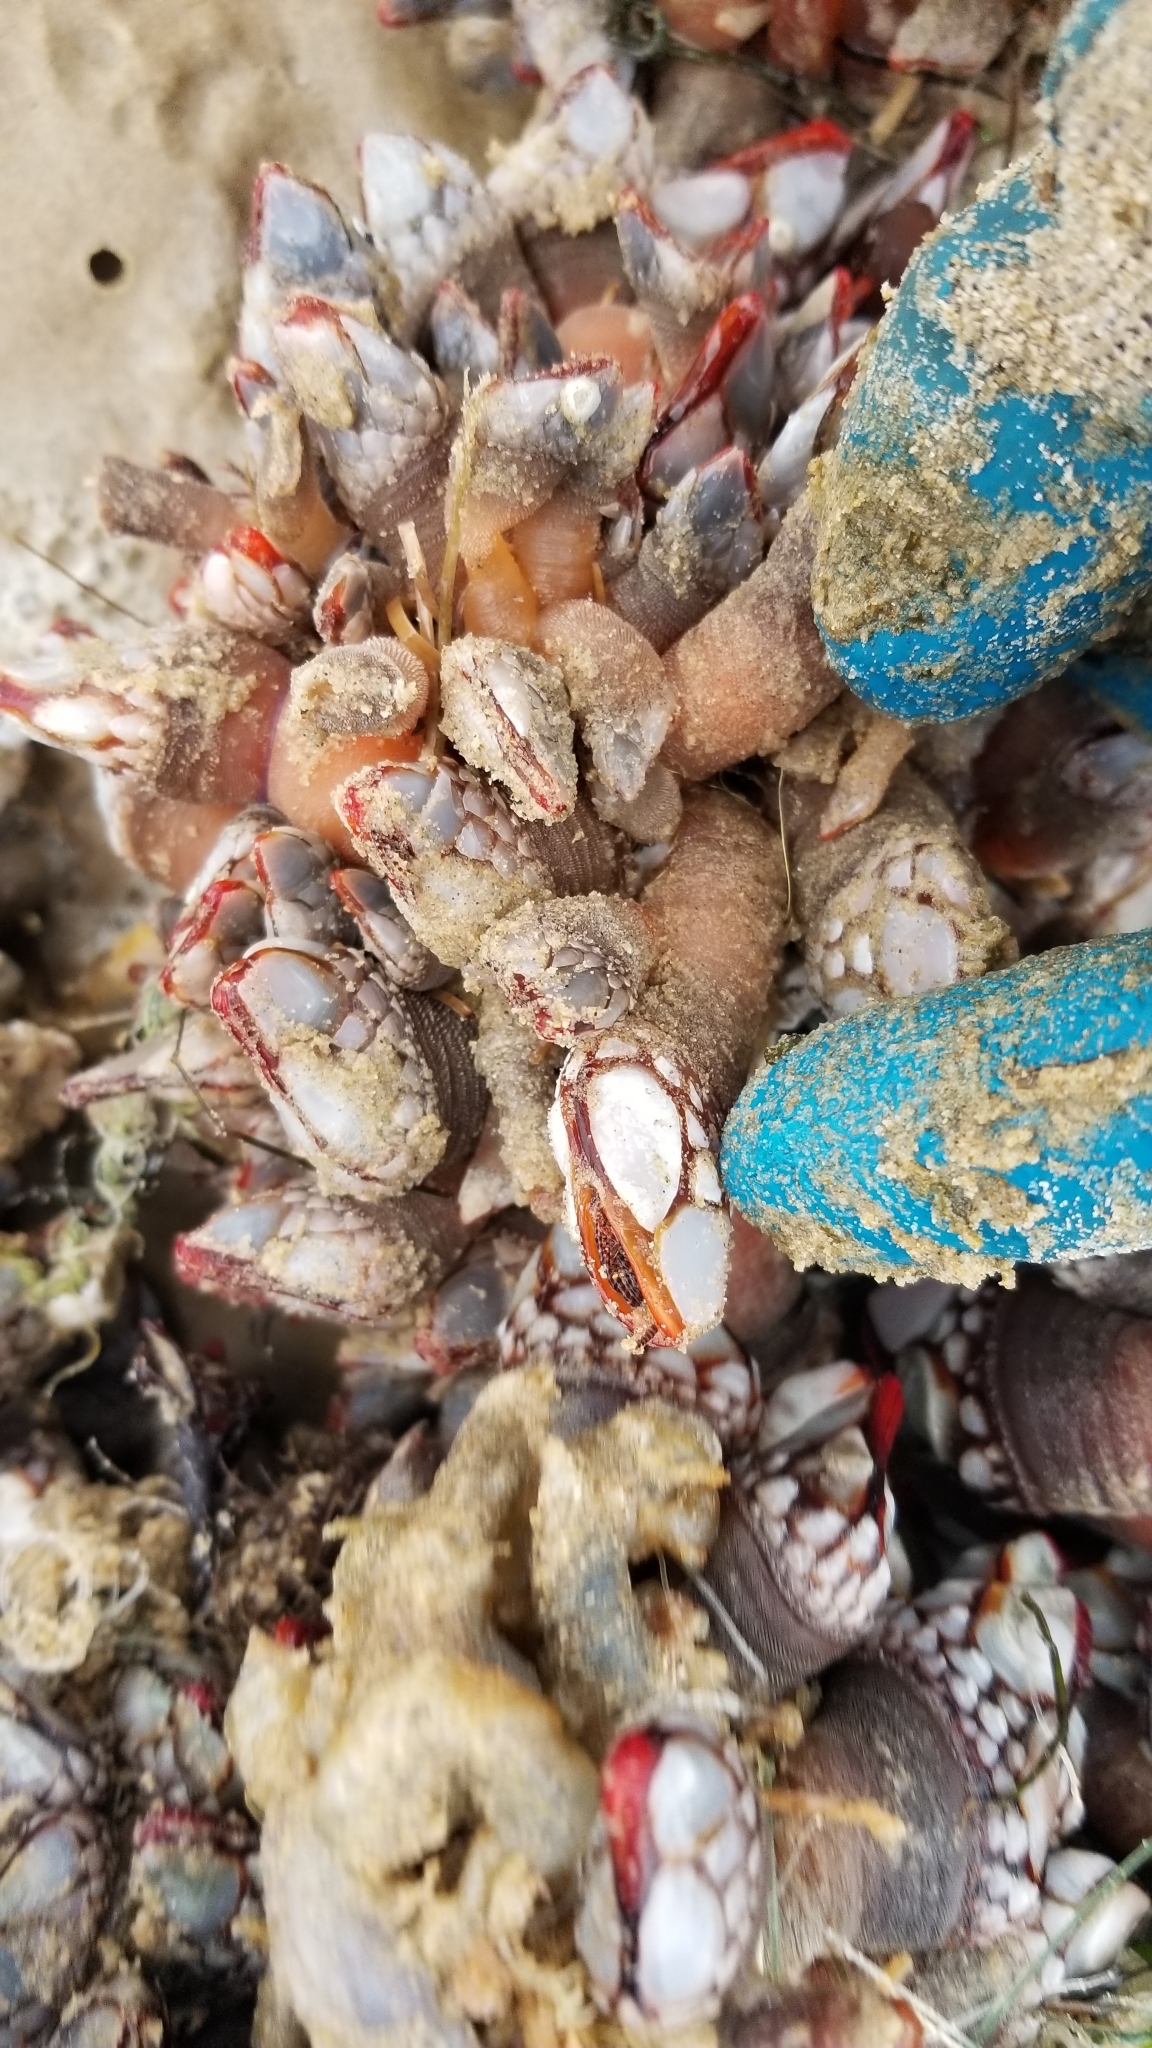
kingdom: Animalia
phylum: Arthropoda
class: Maxillopoda
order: Pedunculata
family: Pollicipedidae
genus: Pollicipes
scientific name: Pollicipes polymerus
